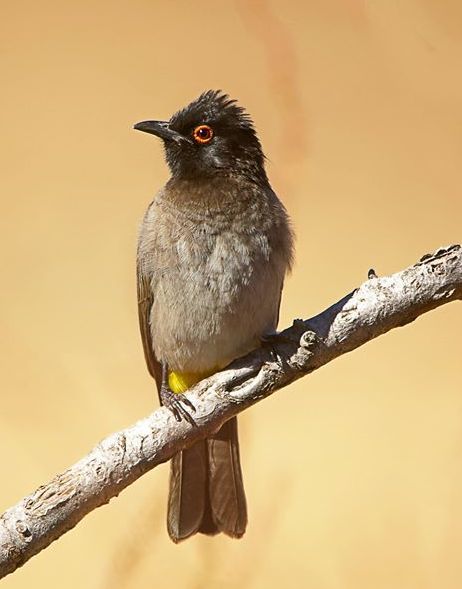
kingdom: Animalia
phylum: Chordata
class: Aves
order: Passeriformes
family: Pycnonotidae
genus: Pycnonotus
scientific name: Pycnonotus nigricans
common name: African red-eyed bulbul
